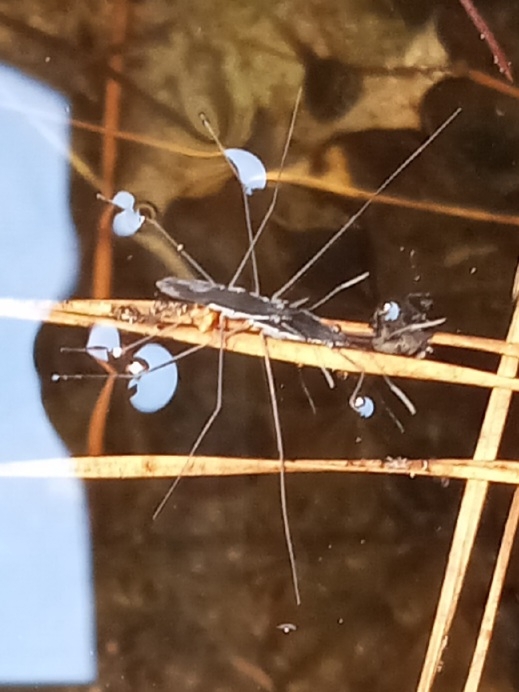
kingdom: Animalia
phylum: Arthropoda
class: Insecta
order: Hemiptera
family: Gerridae
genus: Limnoporus
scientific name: Limnoporus canaliculatus
